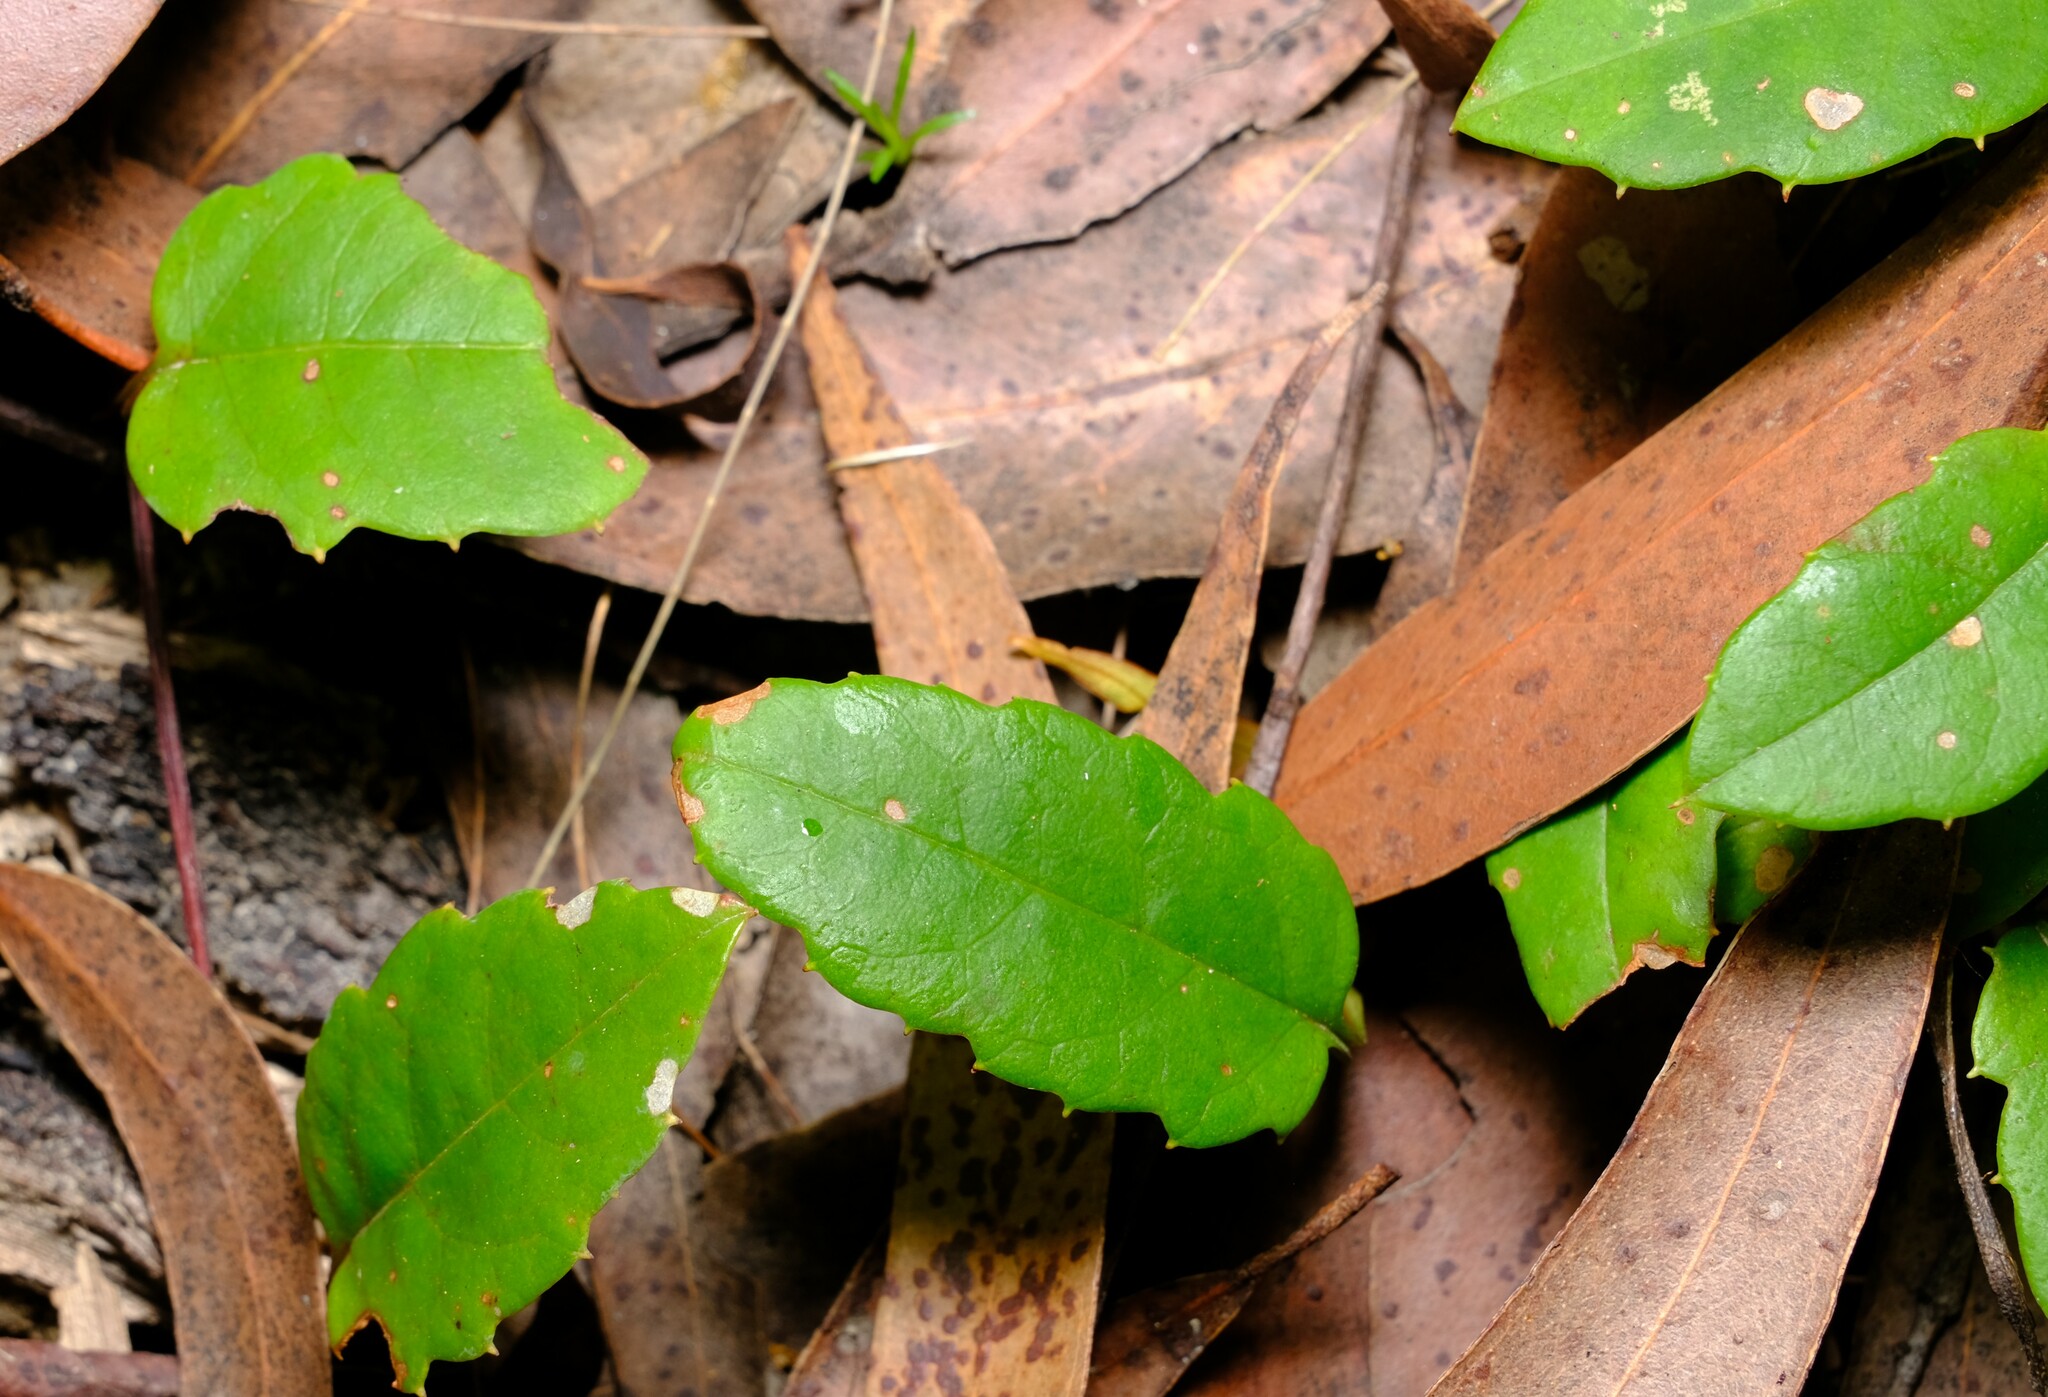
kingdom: Plantae
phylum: Tracheophyta
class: Magnoliopsida
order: Dilleniales
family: Dilleniaceae
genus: Hibbertia
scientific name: Hibbertia dentata
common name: Trailing guinea-flower
